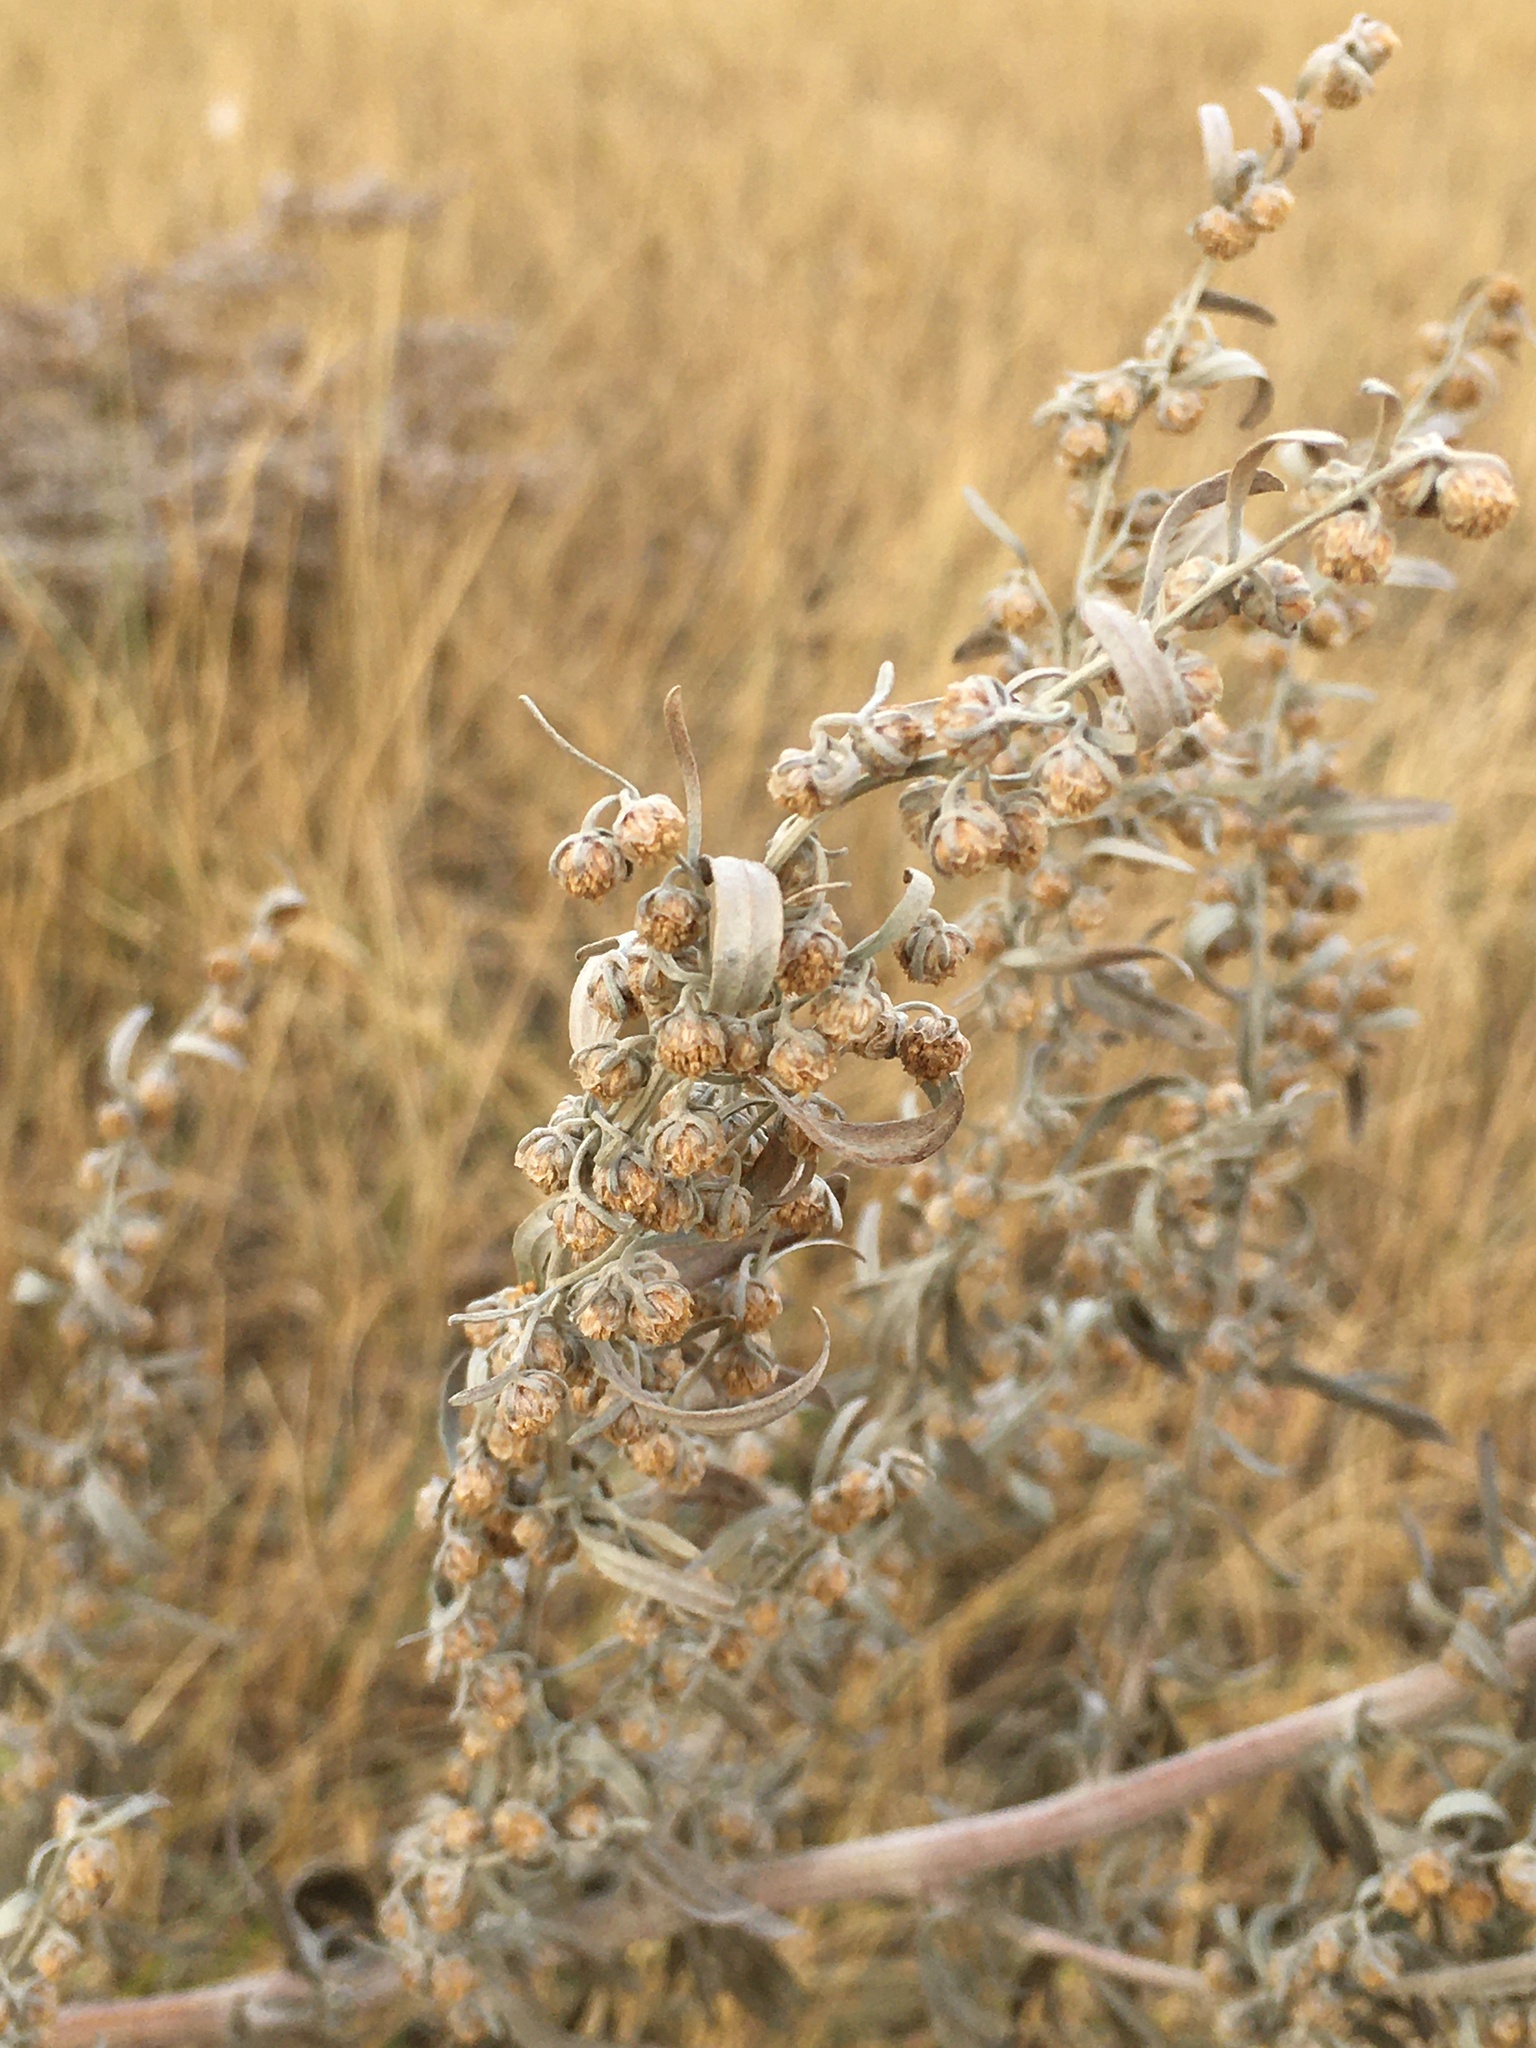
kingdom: Plantae
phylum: Tracheophyta
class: Magnoliopsida
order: Asterales
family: Asteraceae
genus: Artemisia
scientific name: Artemisia absinthium
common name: Wormwood
